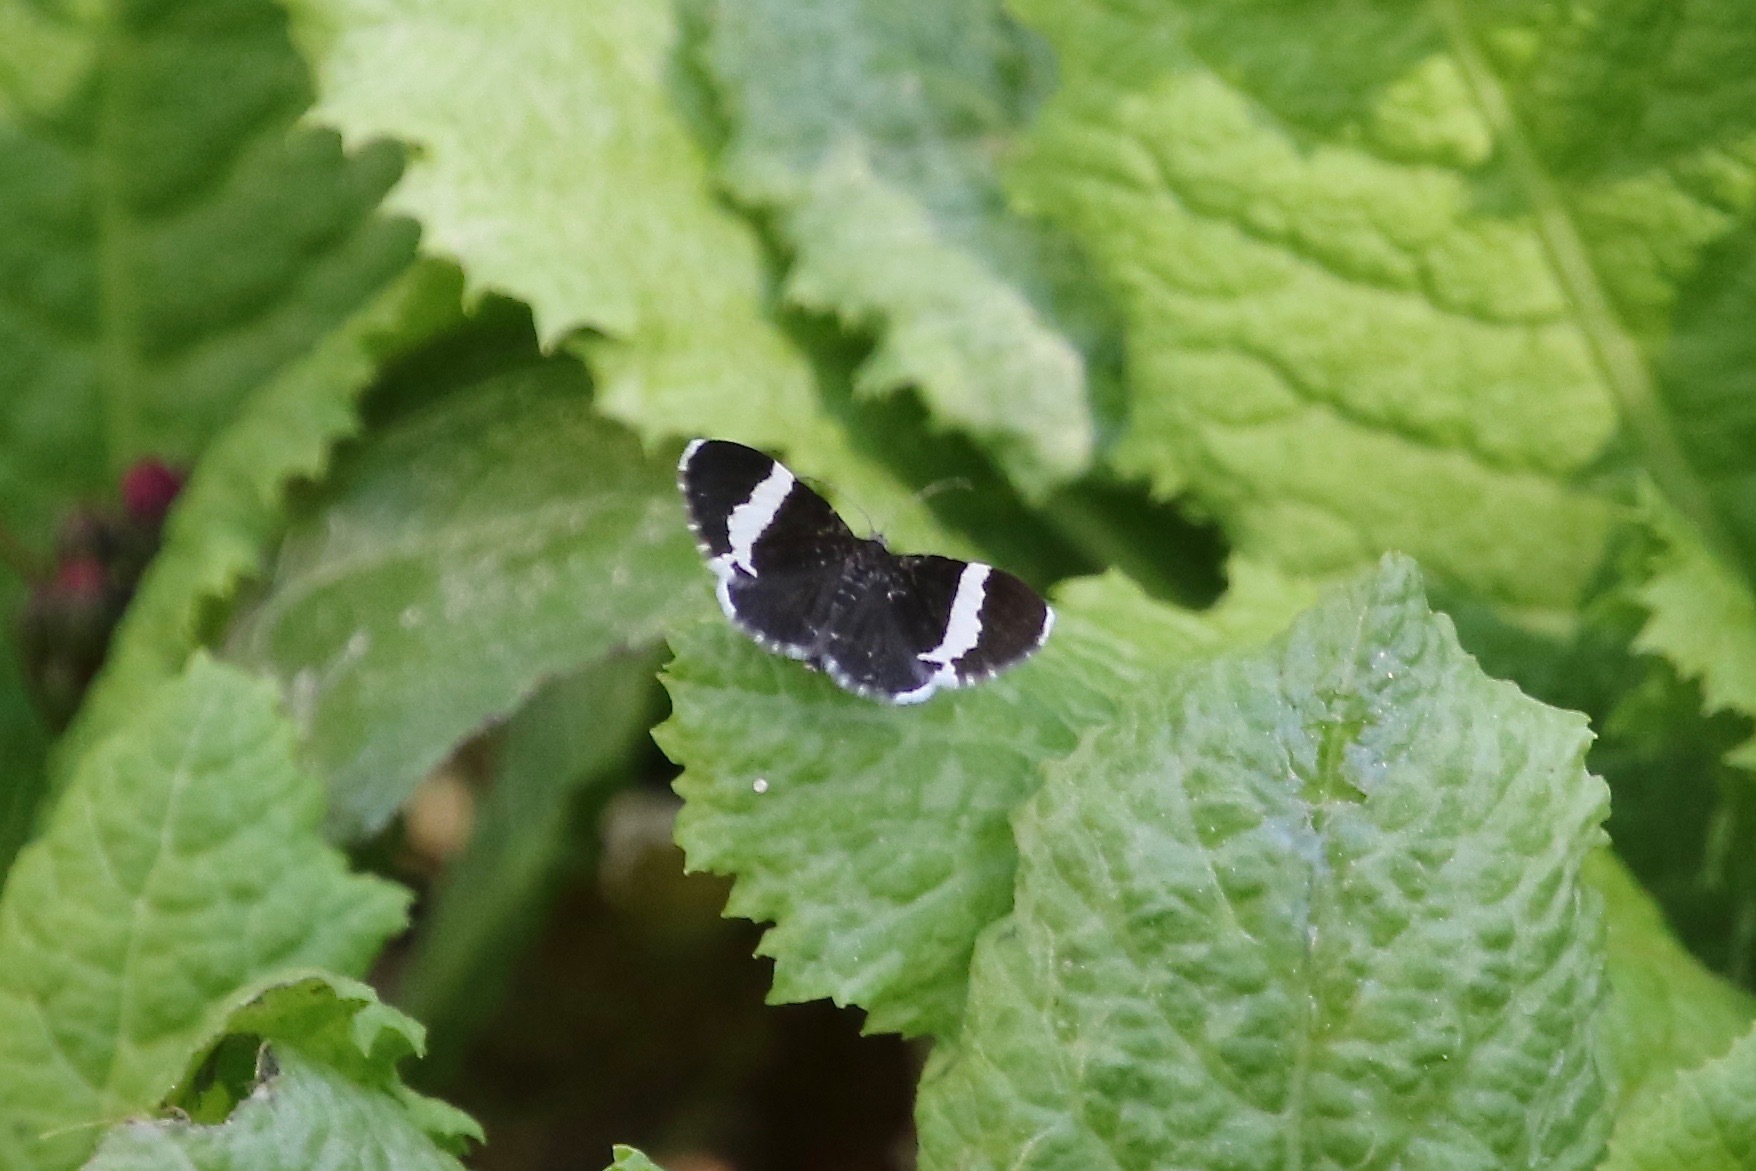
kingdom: Animalia
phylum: Arthropoda
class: Insecta
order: Lepidoptera
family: Geometridae
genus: Trichodezia
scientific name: Trichodezia albovittata
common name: White striped black
